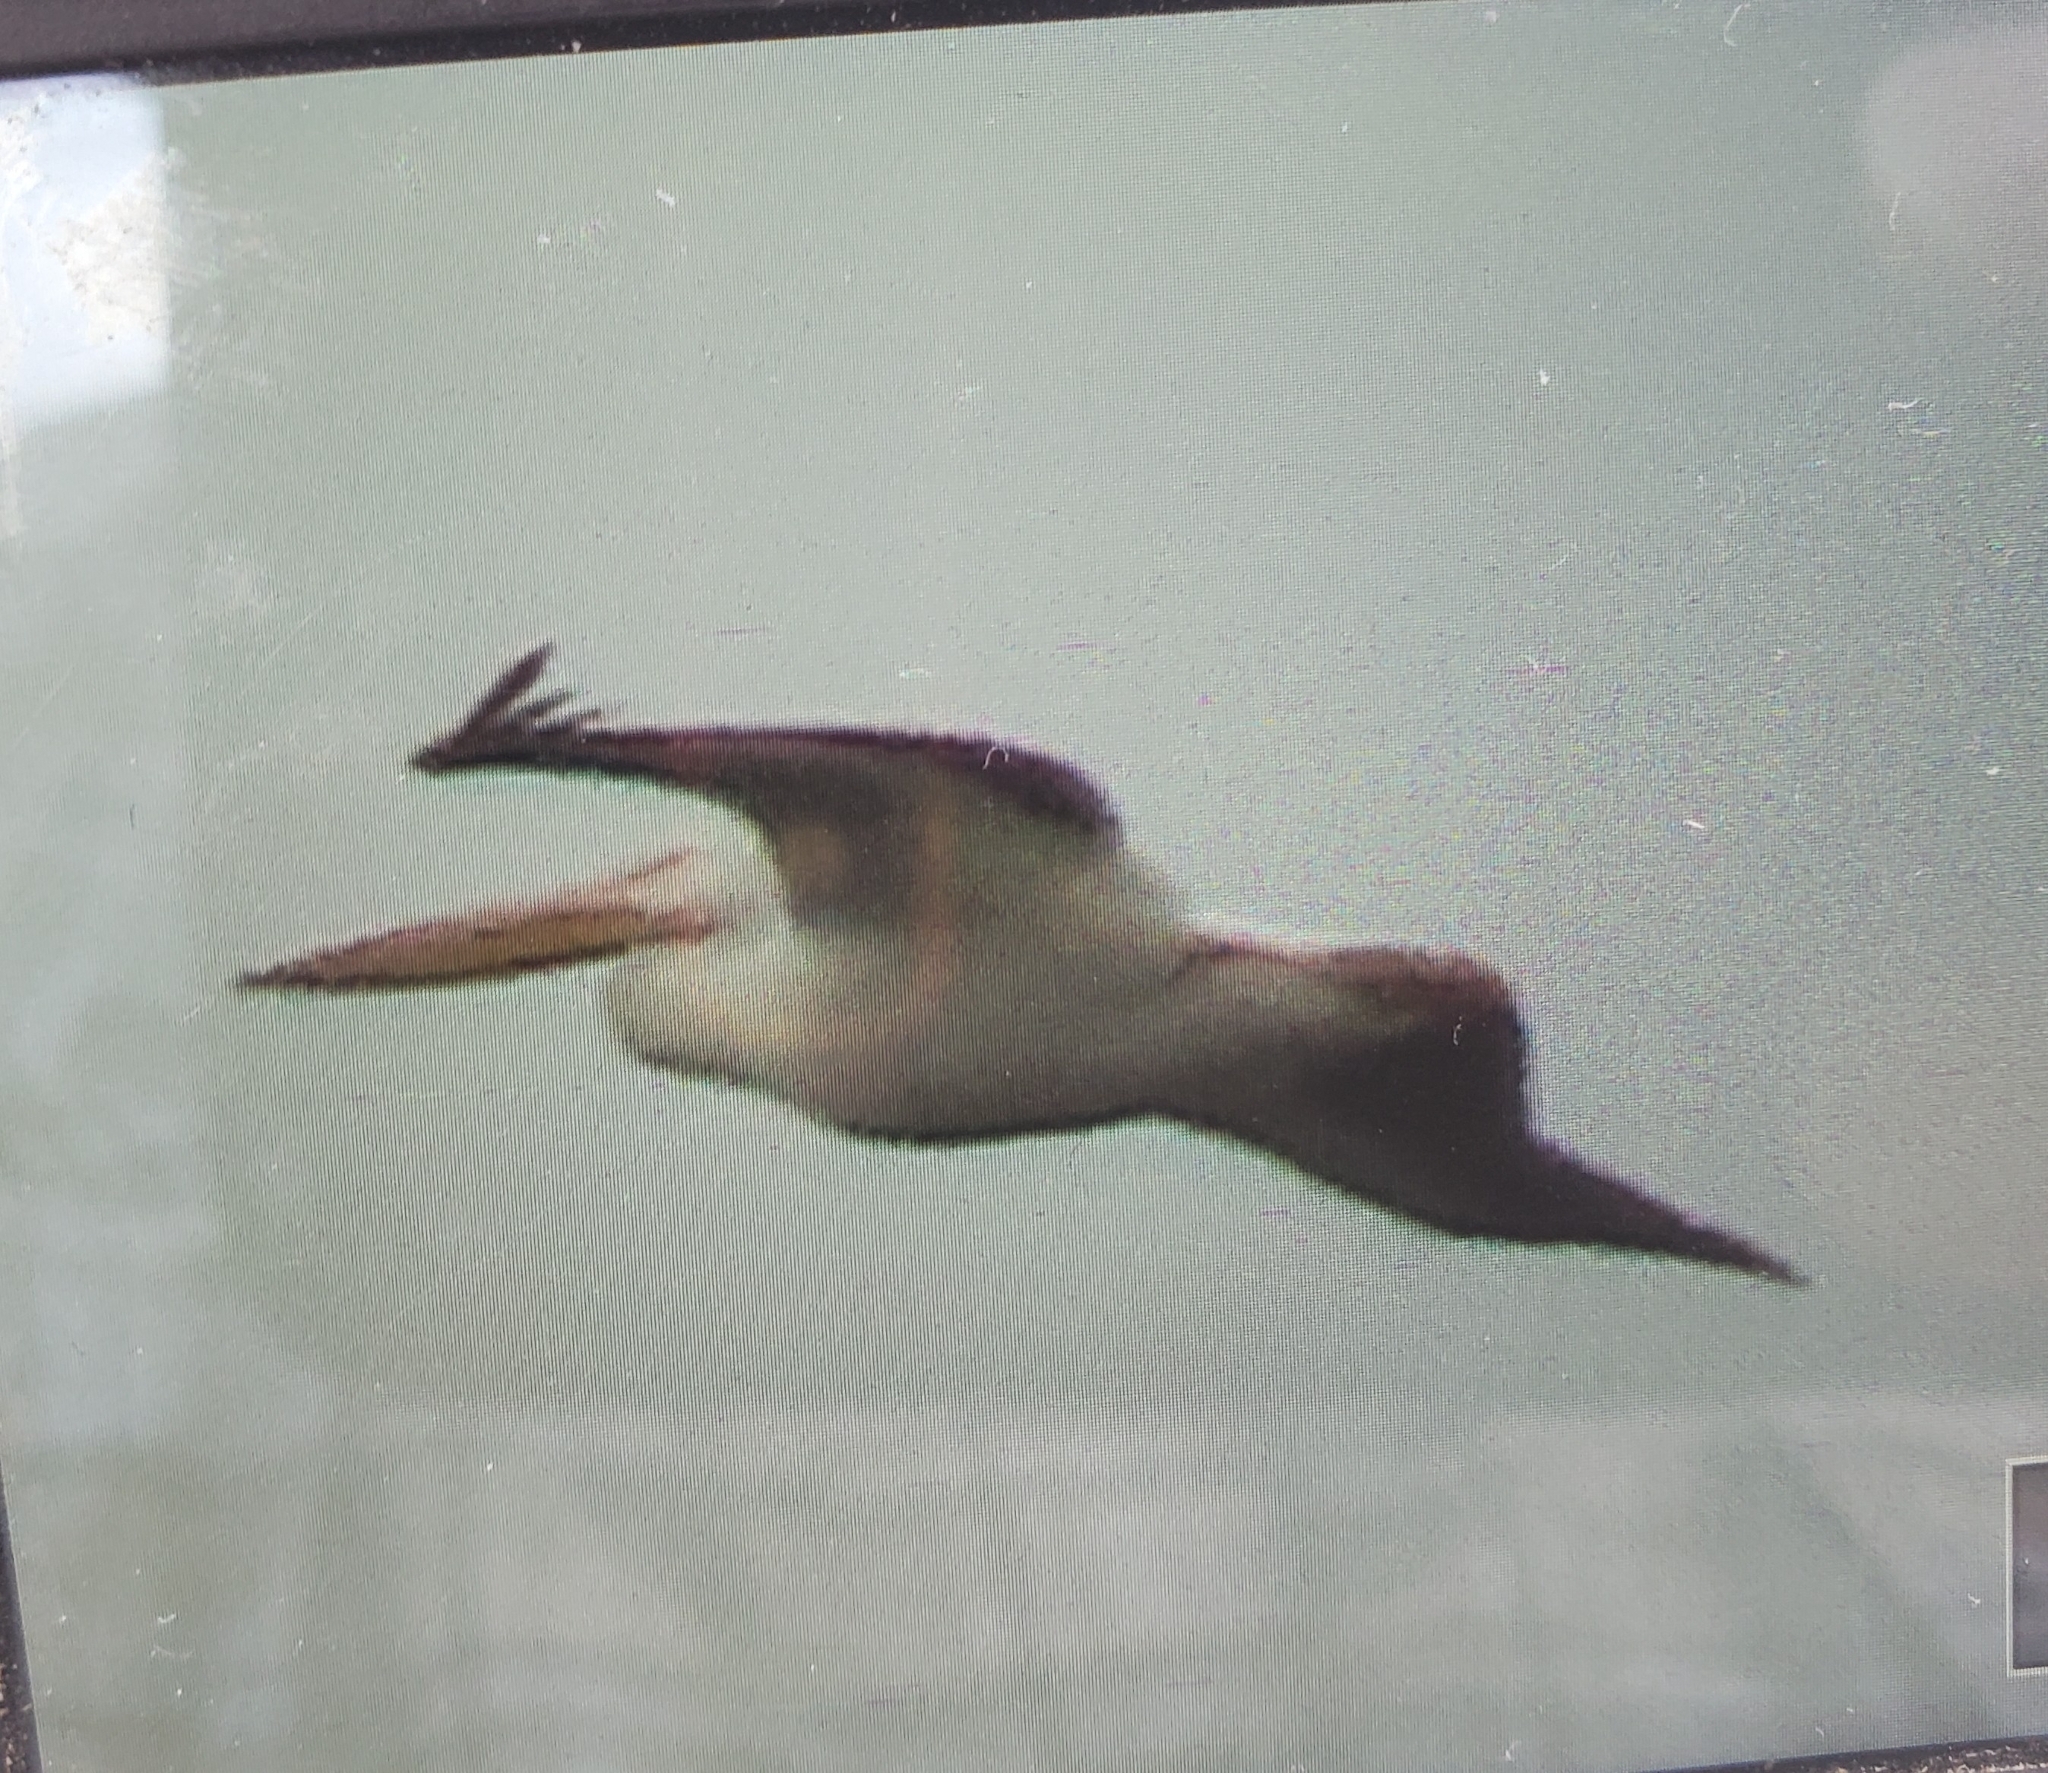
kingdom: Animalia
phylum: Chordata
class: Aves
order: Pelecaniformes
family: Pelecanidae
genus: Pelecanus
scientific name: Pelecanus erythrorhynchos
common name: American white pelican
